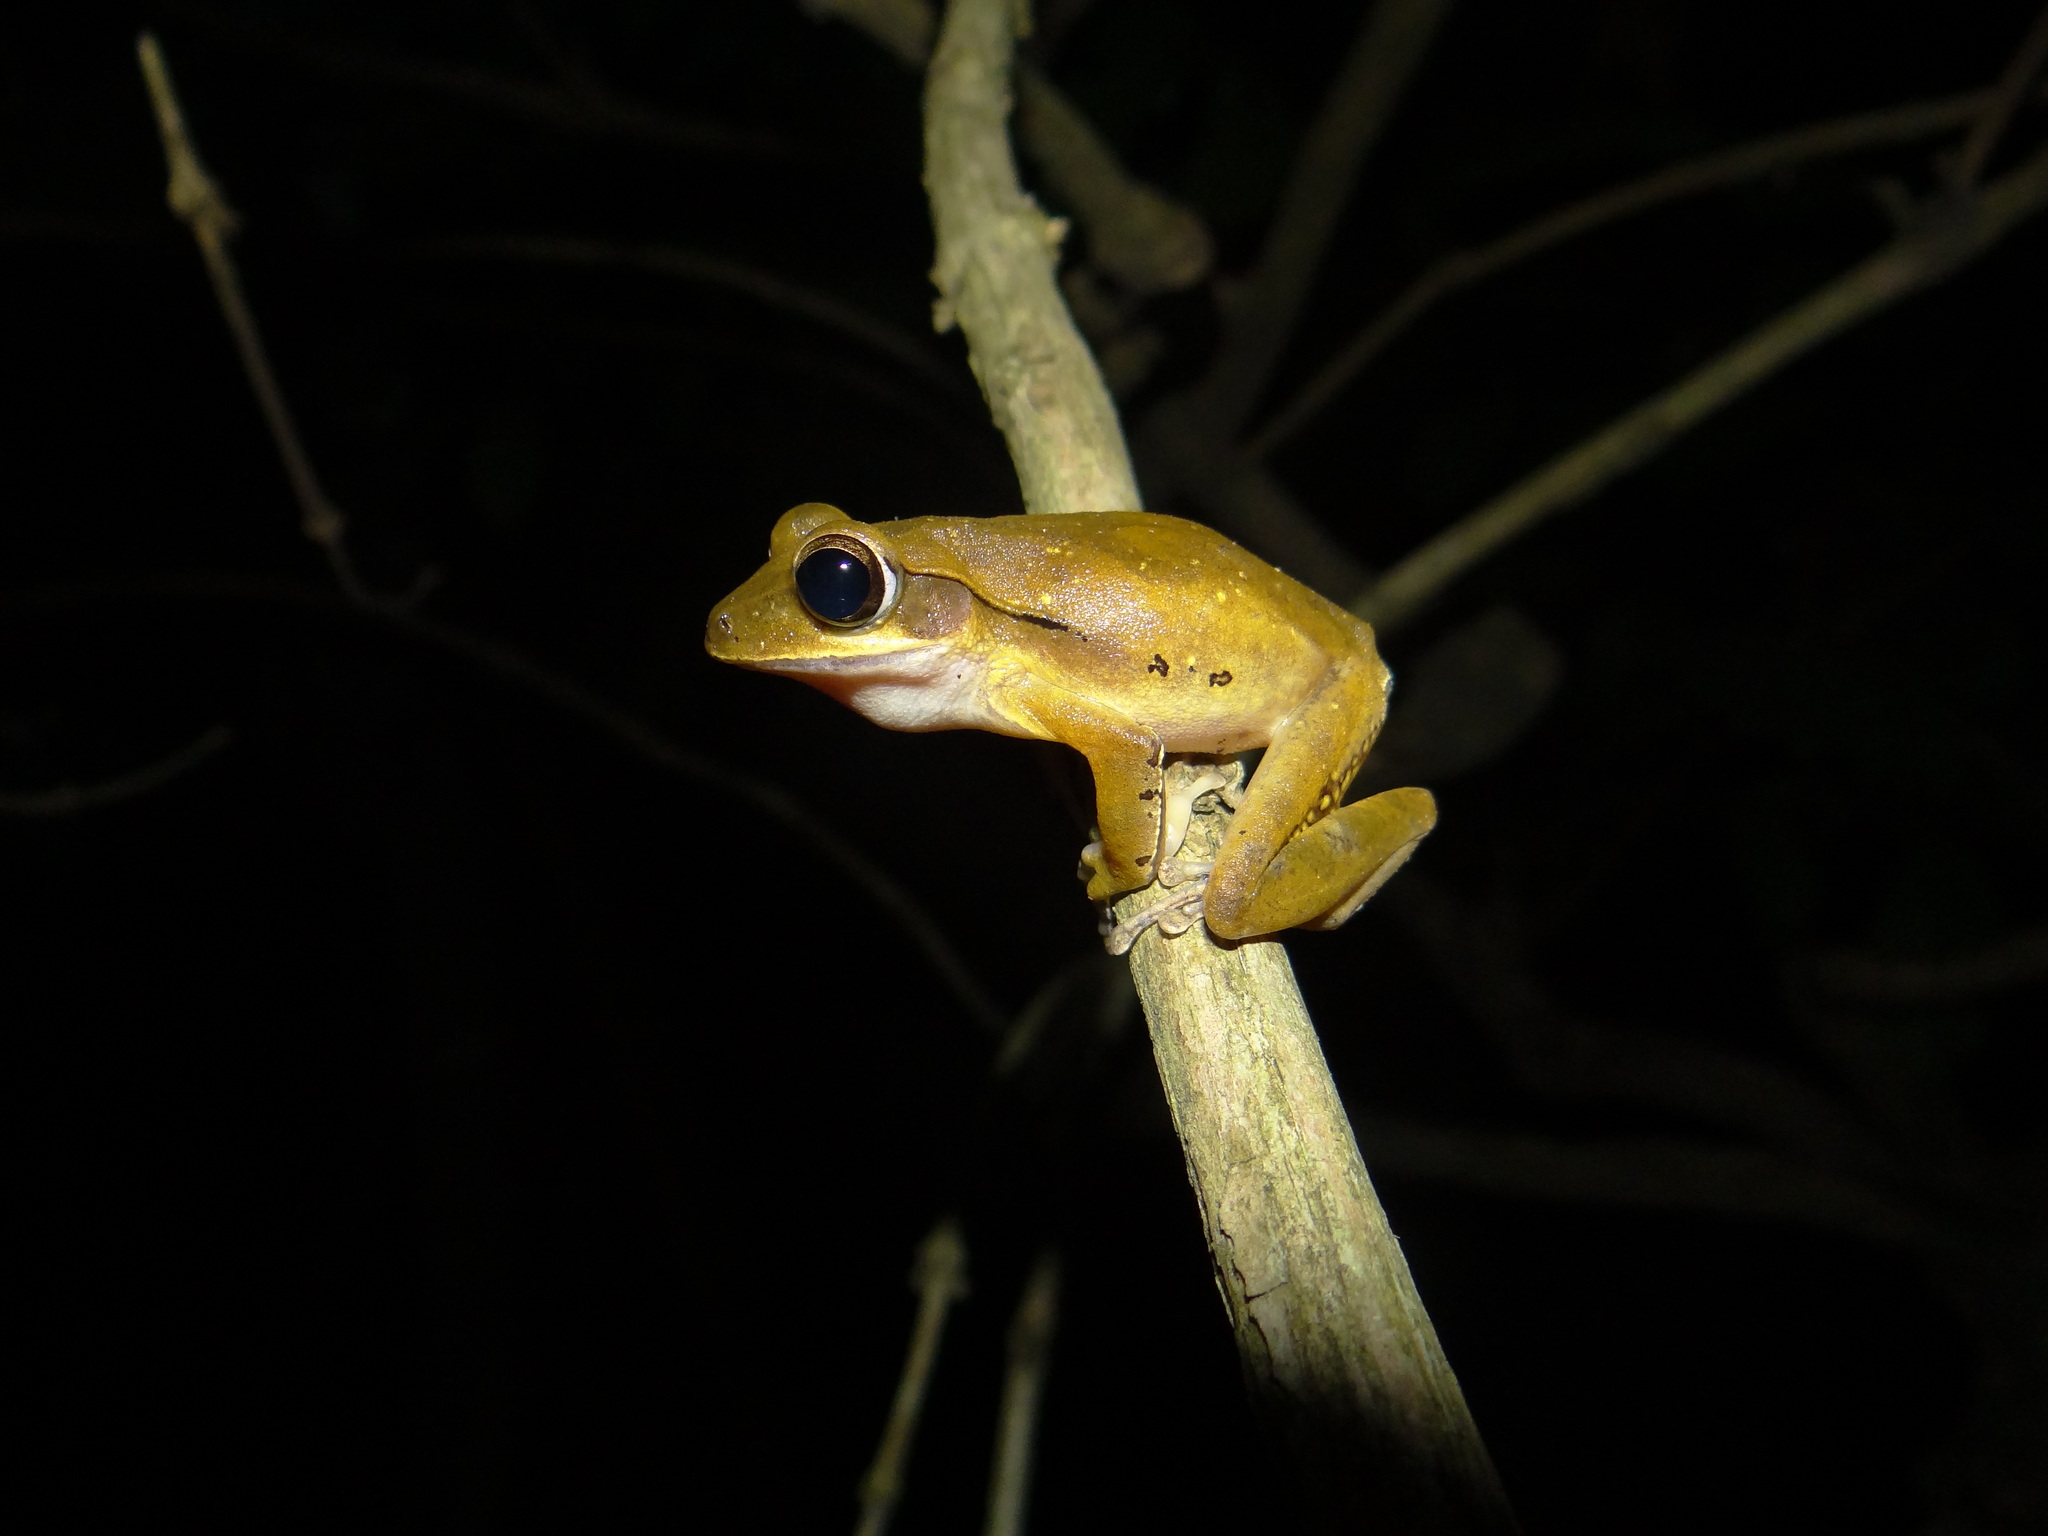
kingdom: Animalia
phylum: Chordata
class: Amphibia
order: Anura
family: Rhacophoridae
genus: Polypedates
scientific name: Polypedates occidentalis
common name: Charpa tree frog
